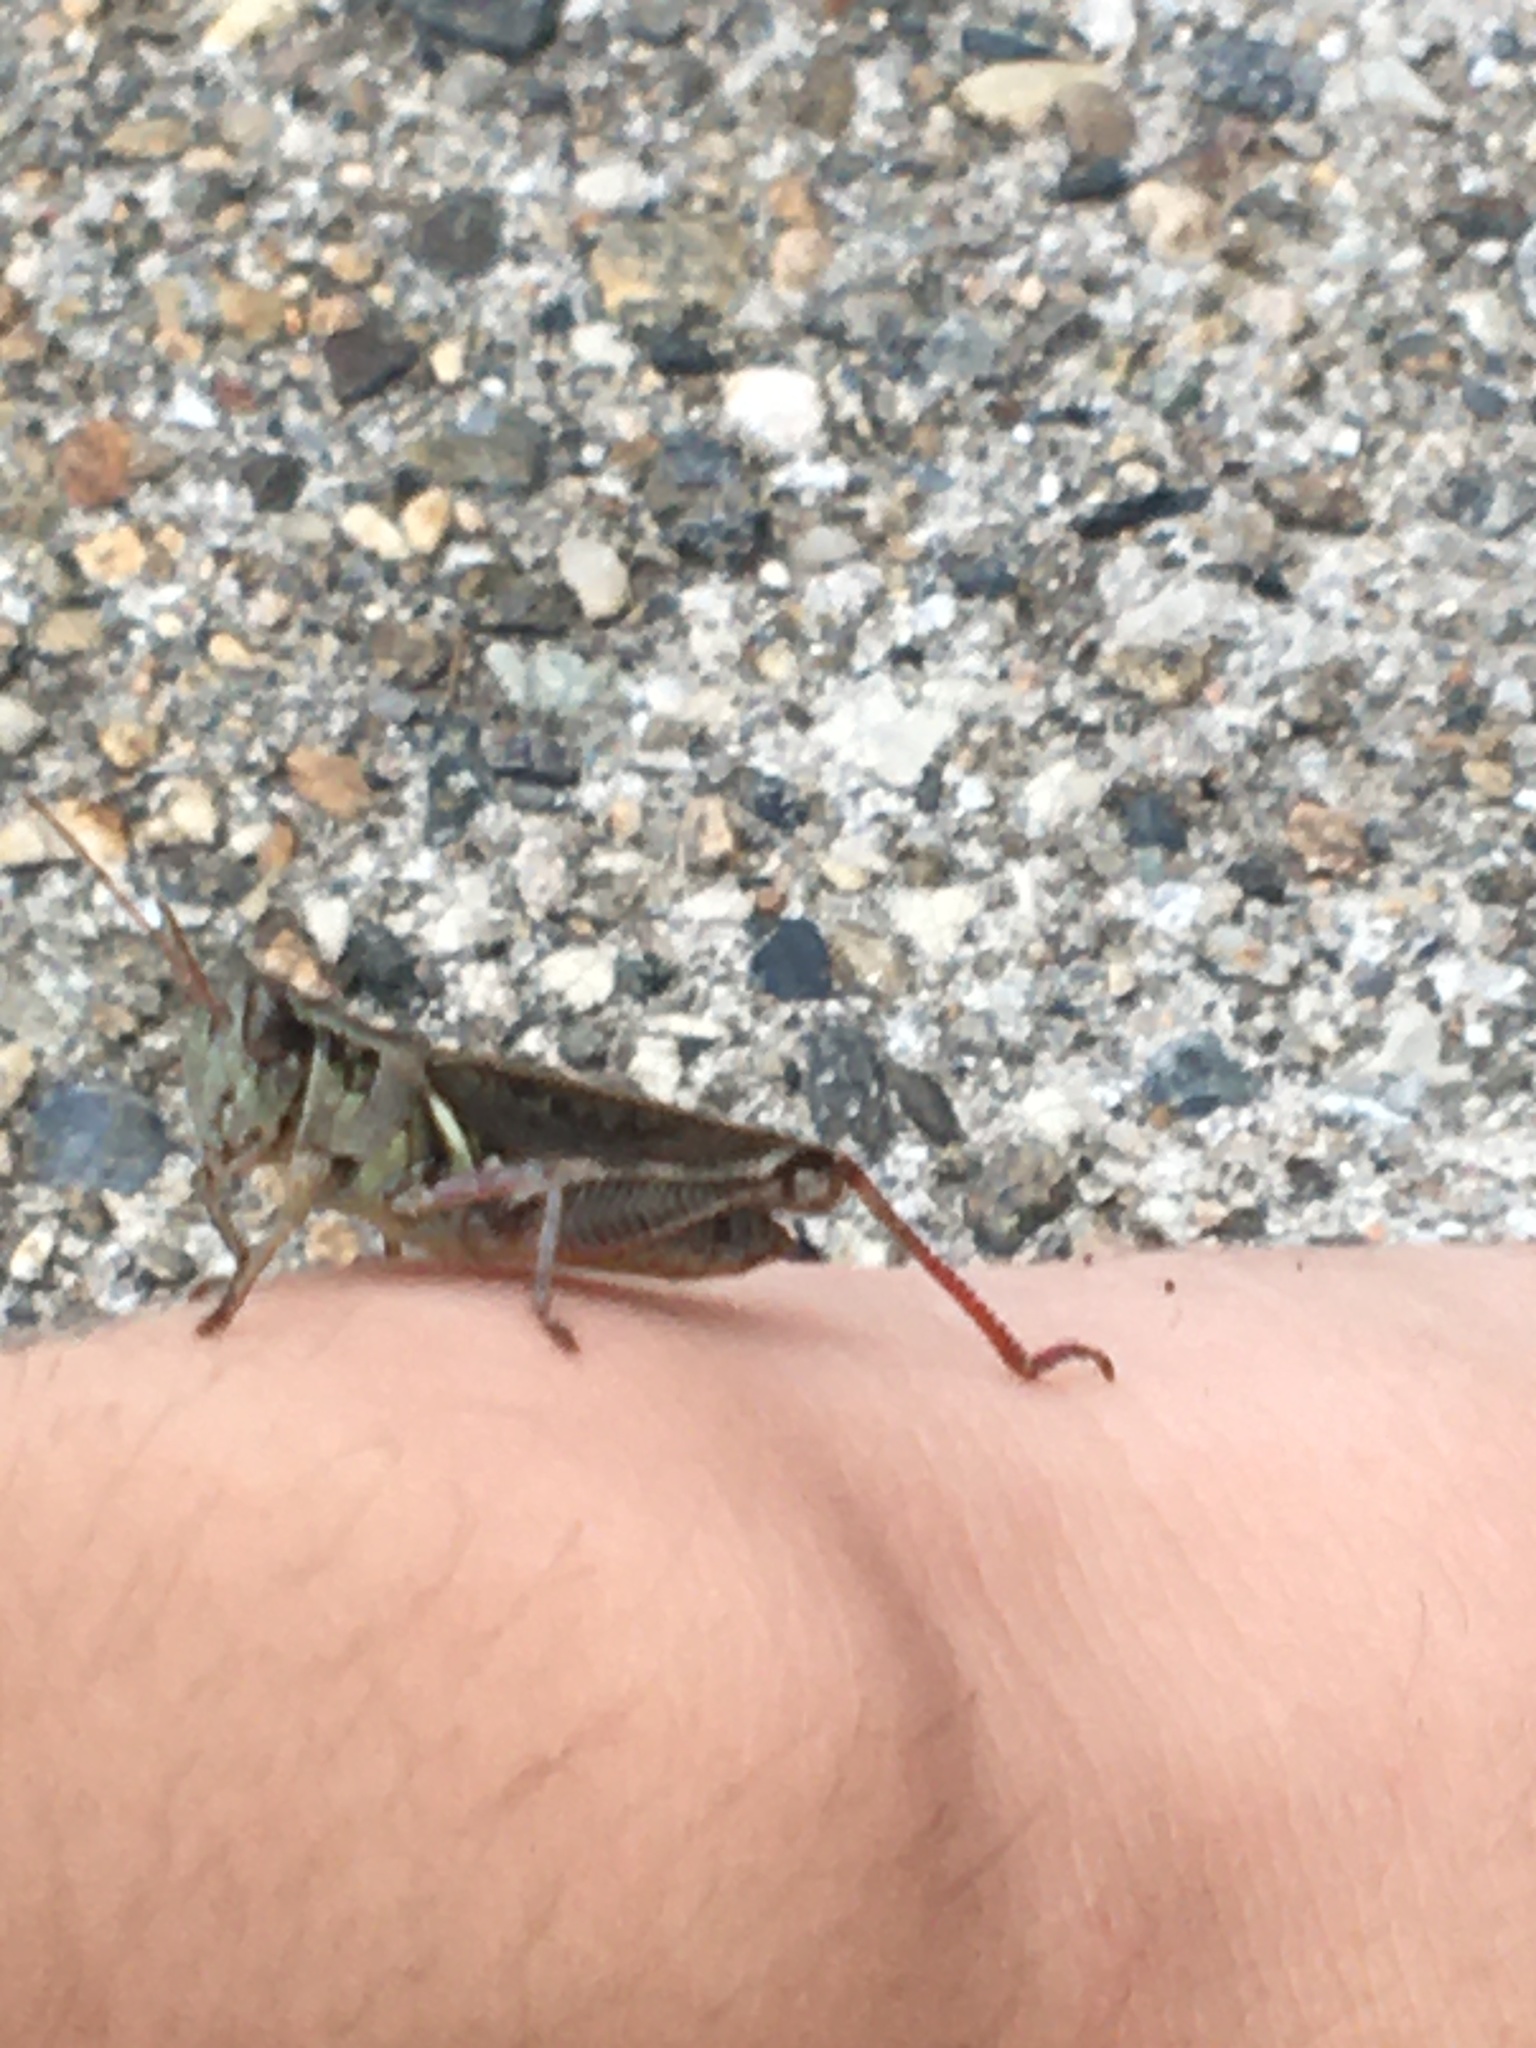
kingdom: Animalia
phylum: Arthropoda
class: Insecta
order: Orthoptera
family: Acrididae
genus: Melanoplus
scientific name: Melanoplus femurrubrum
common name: Red-legged grasshopper
